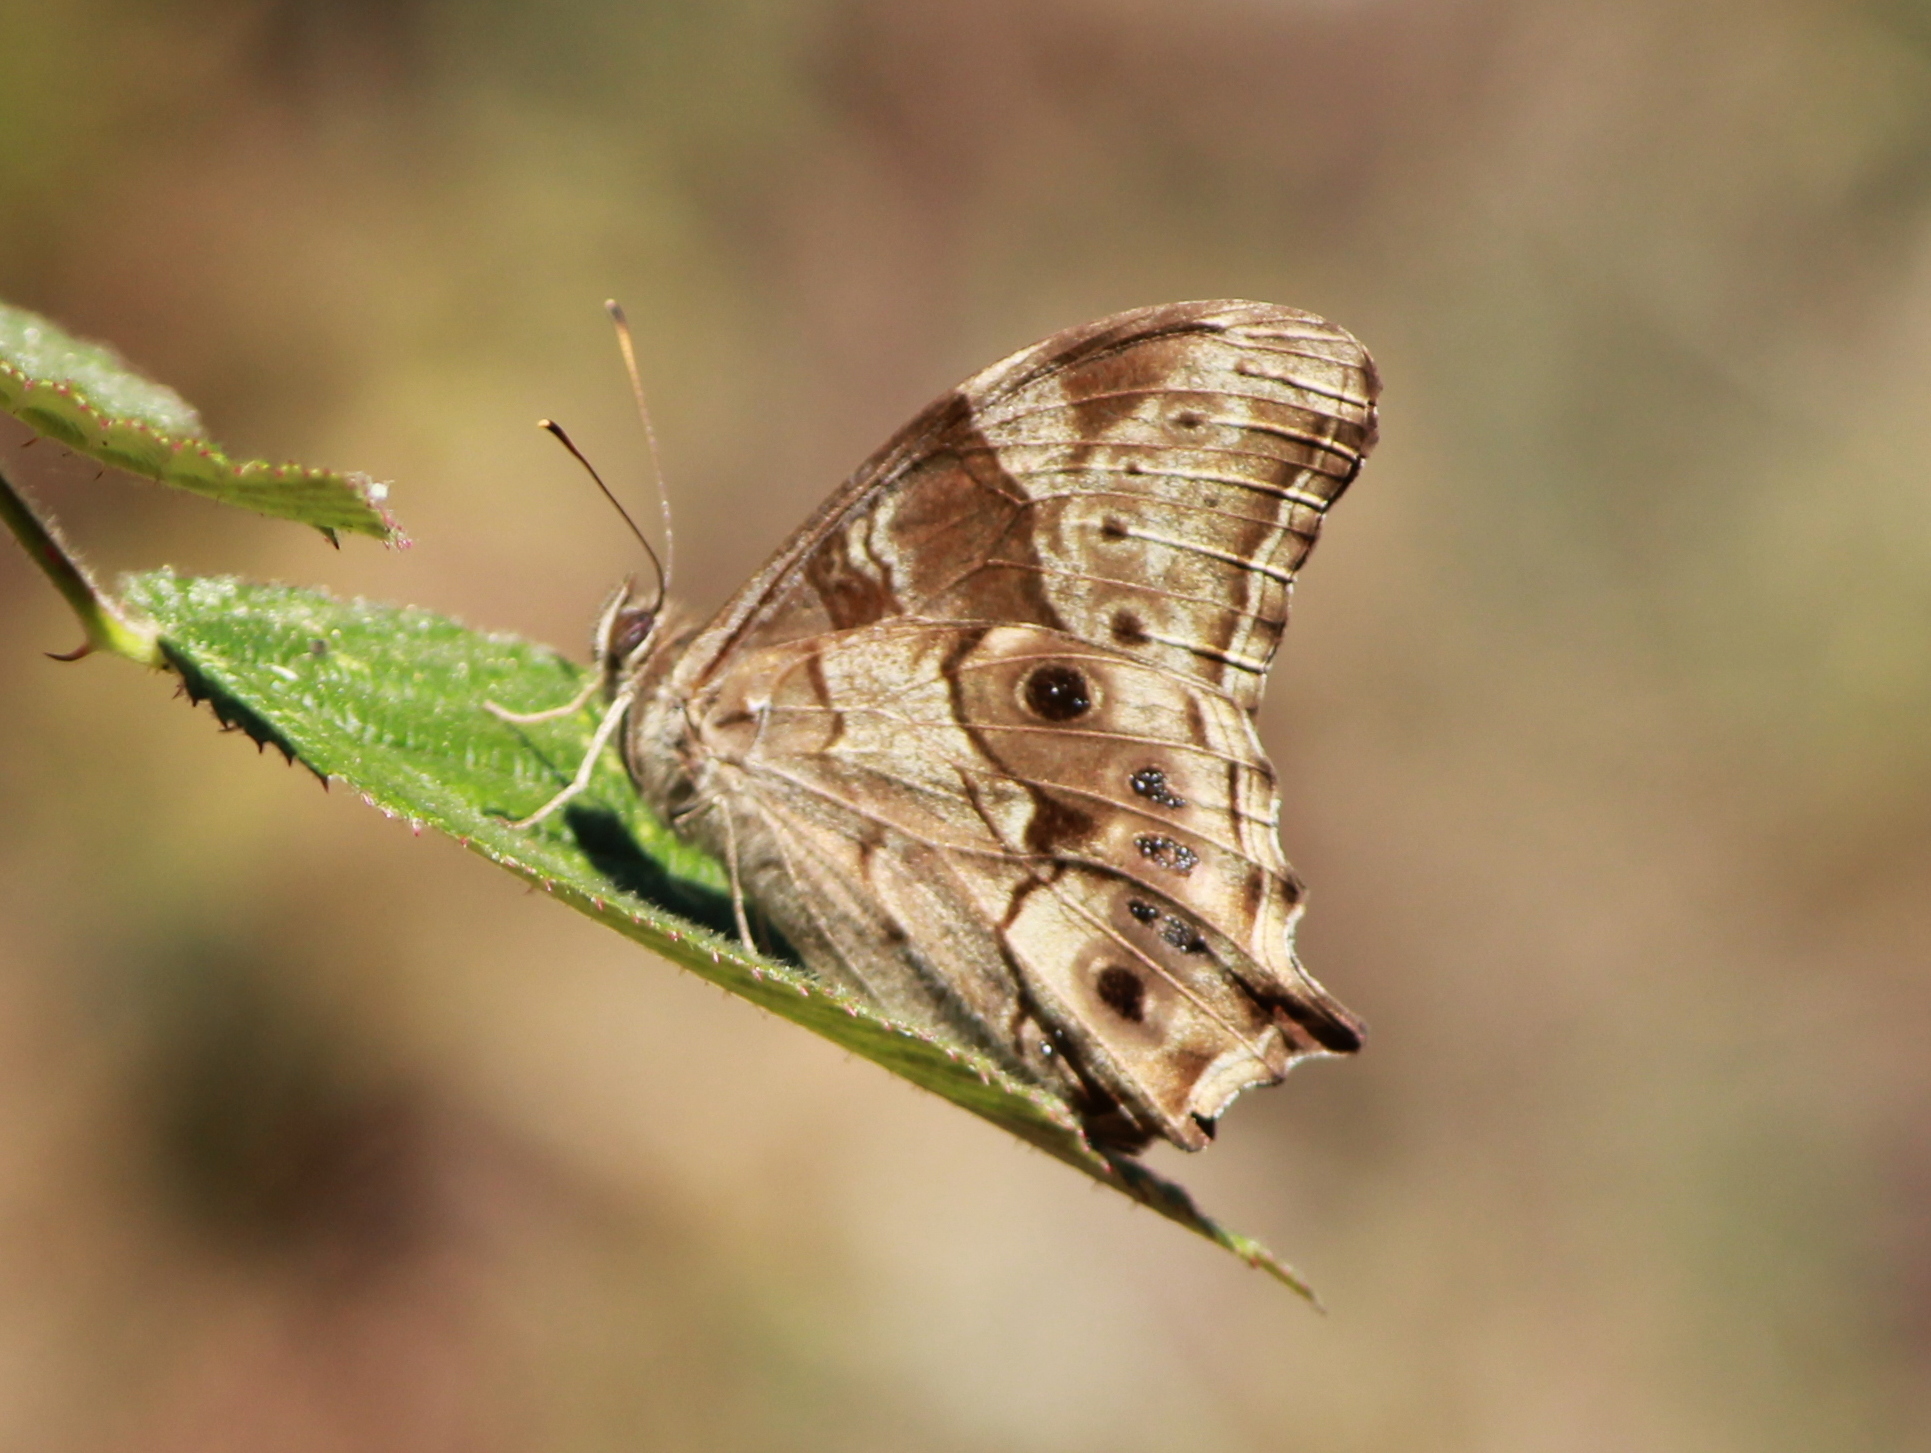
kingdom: Animalia
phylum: Arthropoda
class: Insecta
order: Lepidoptera
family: Nymphalidae
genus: Lethe
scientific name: Lethe drypetis
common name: Tamil treebrown
